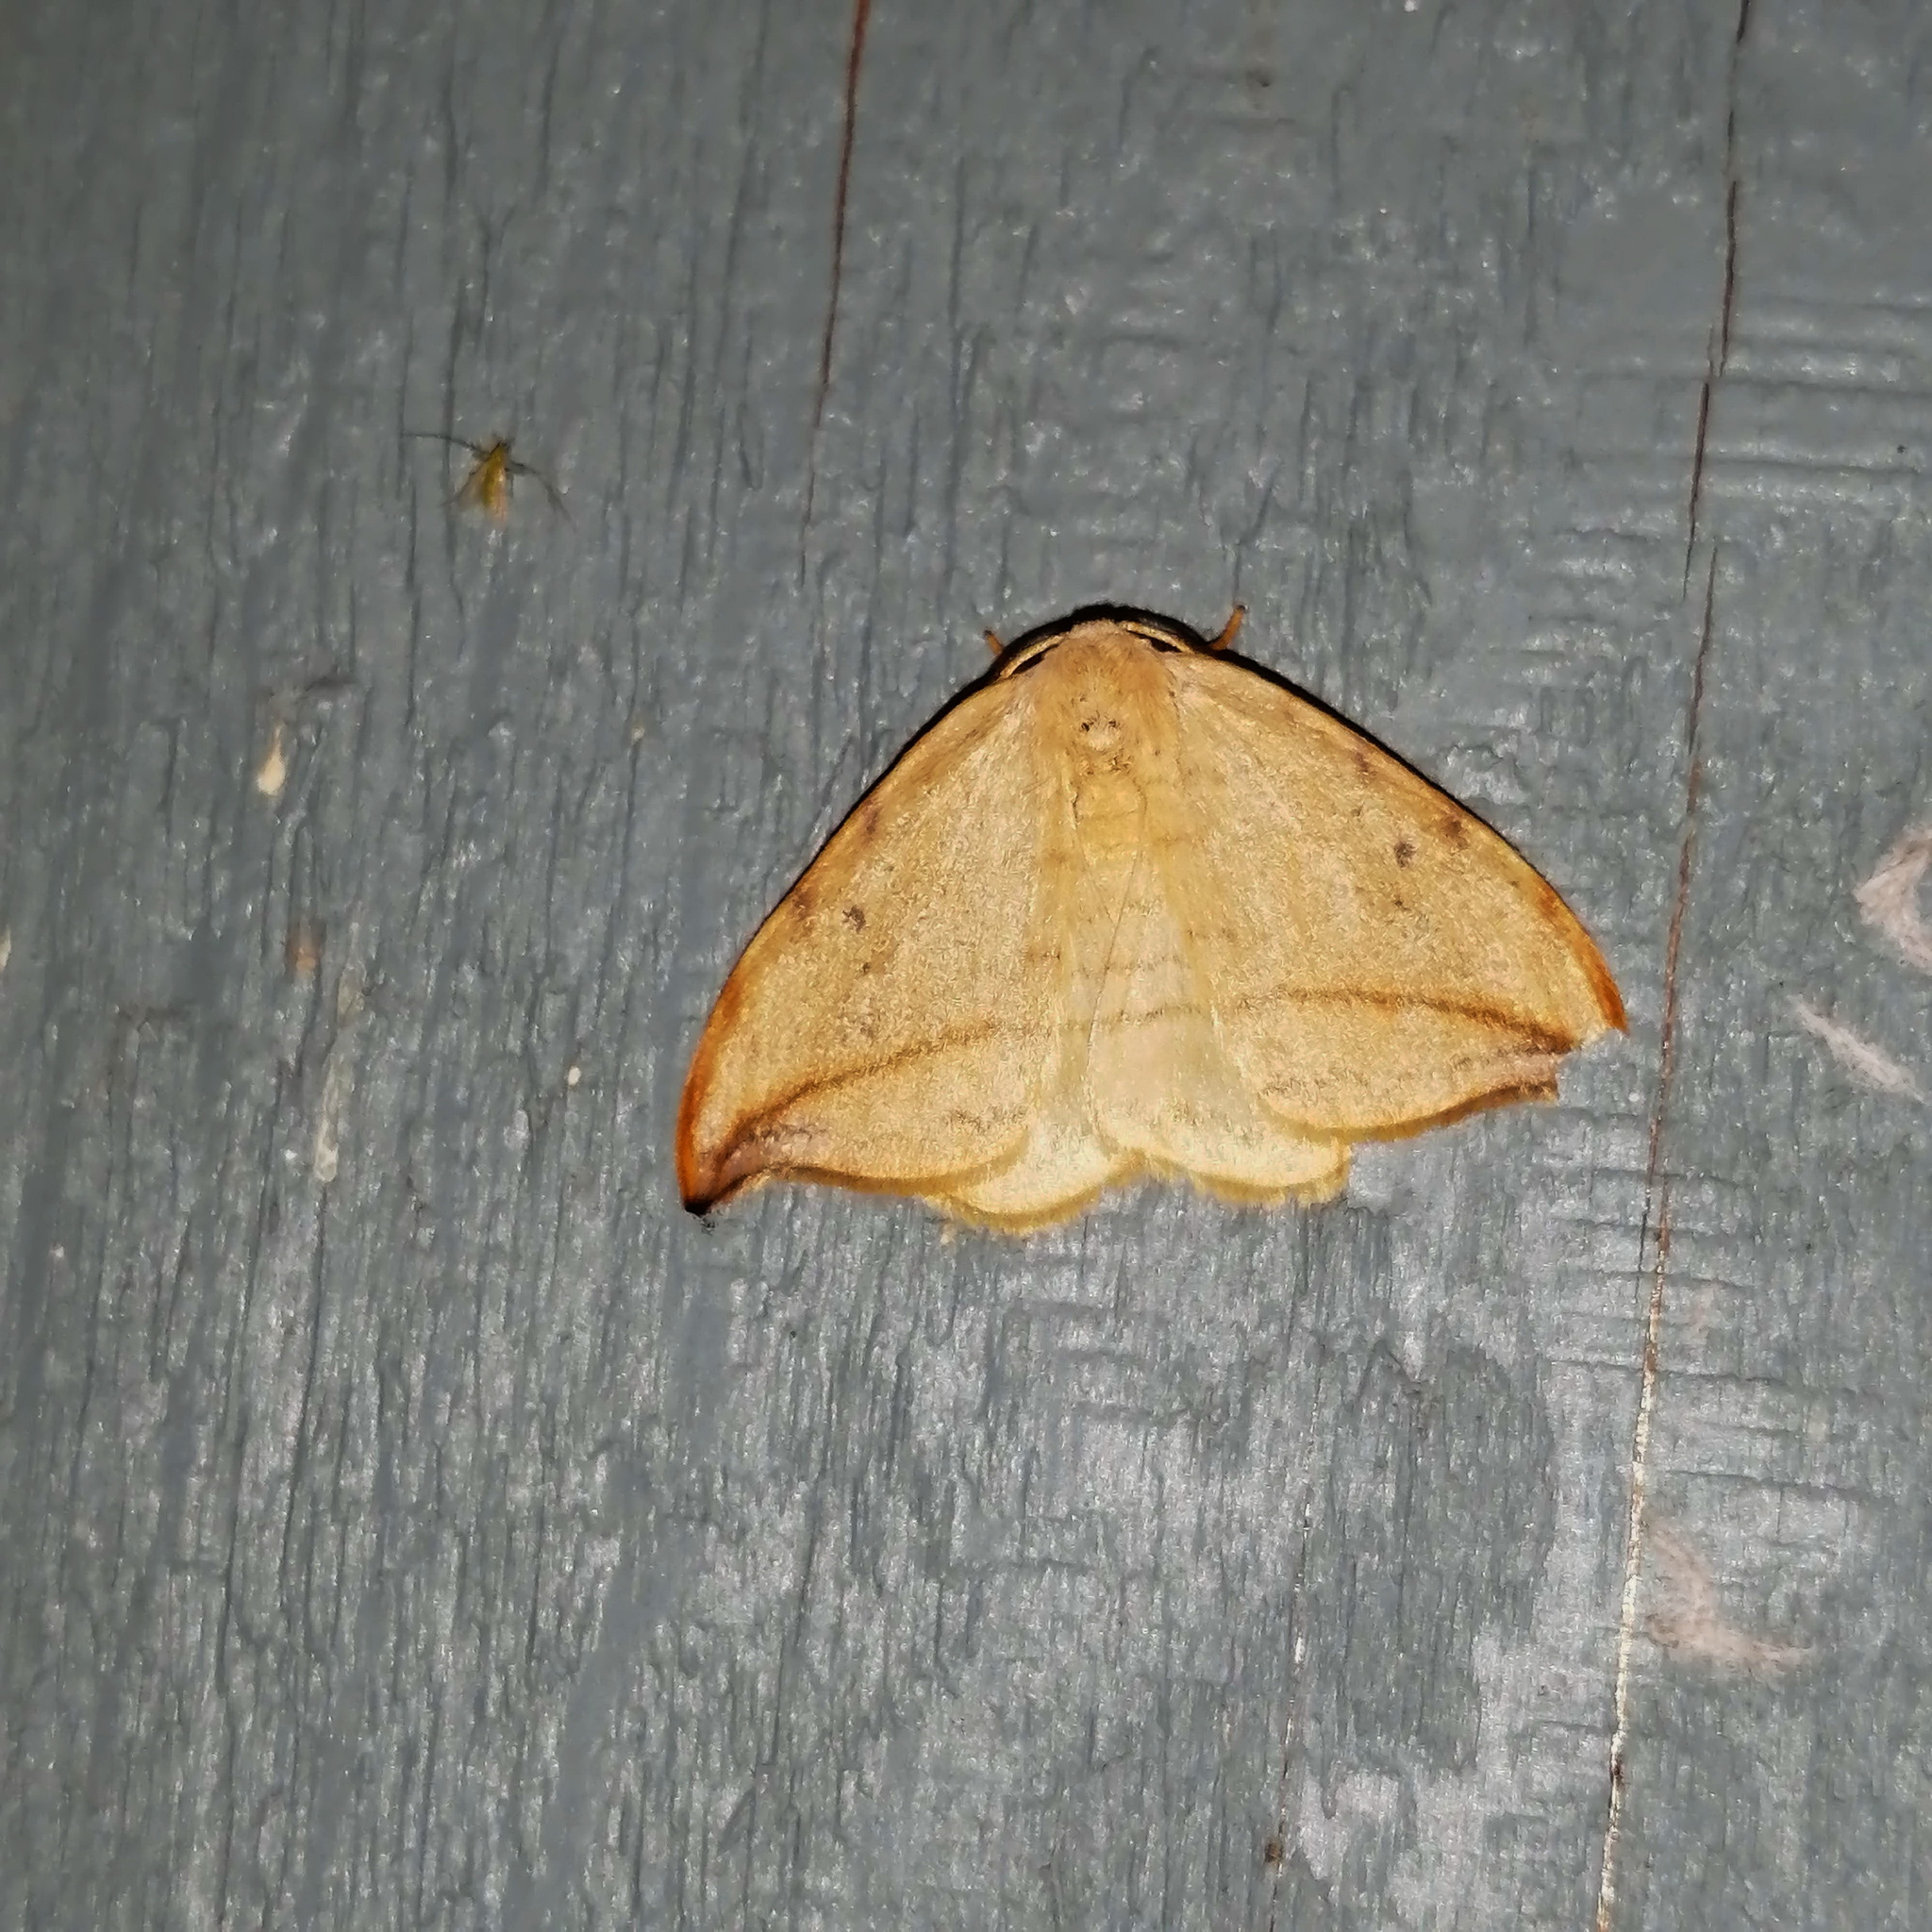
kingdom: Animalia
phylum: Arthropoda
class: Insecta
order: Lepidoptera
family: Drepanidae
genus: Drepana
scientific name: Drepana arcuata
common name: Arched hooktip moth
